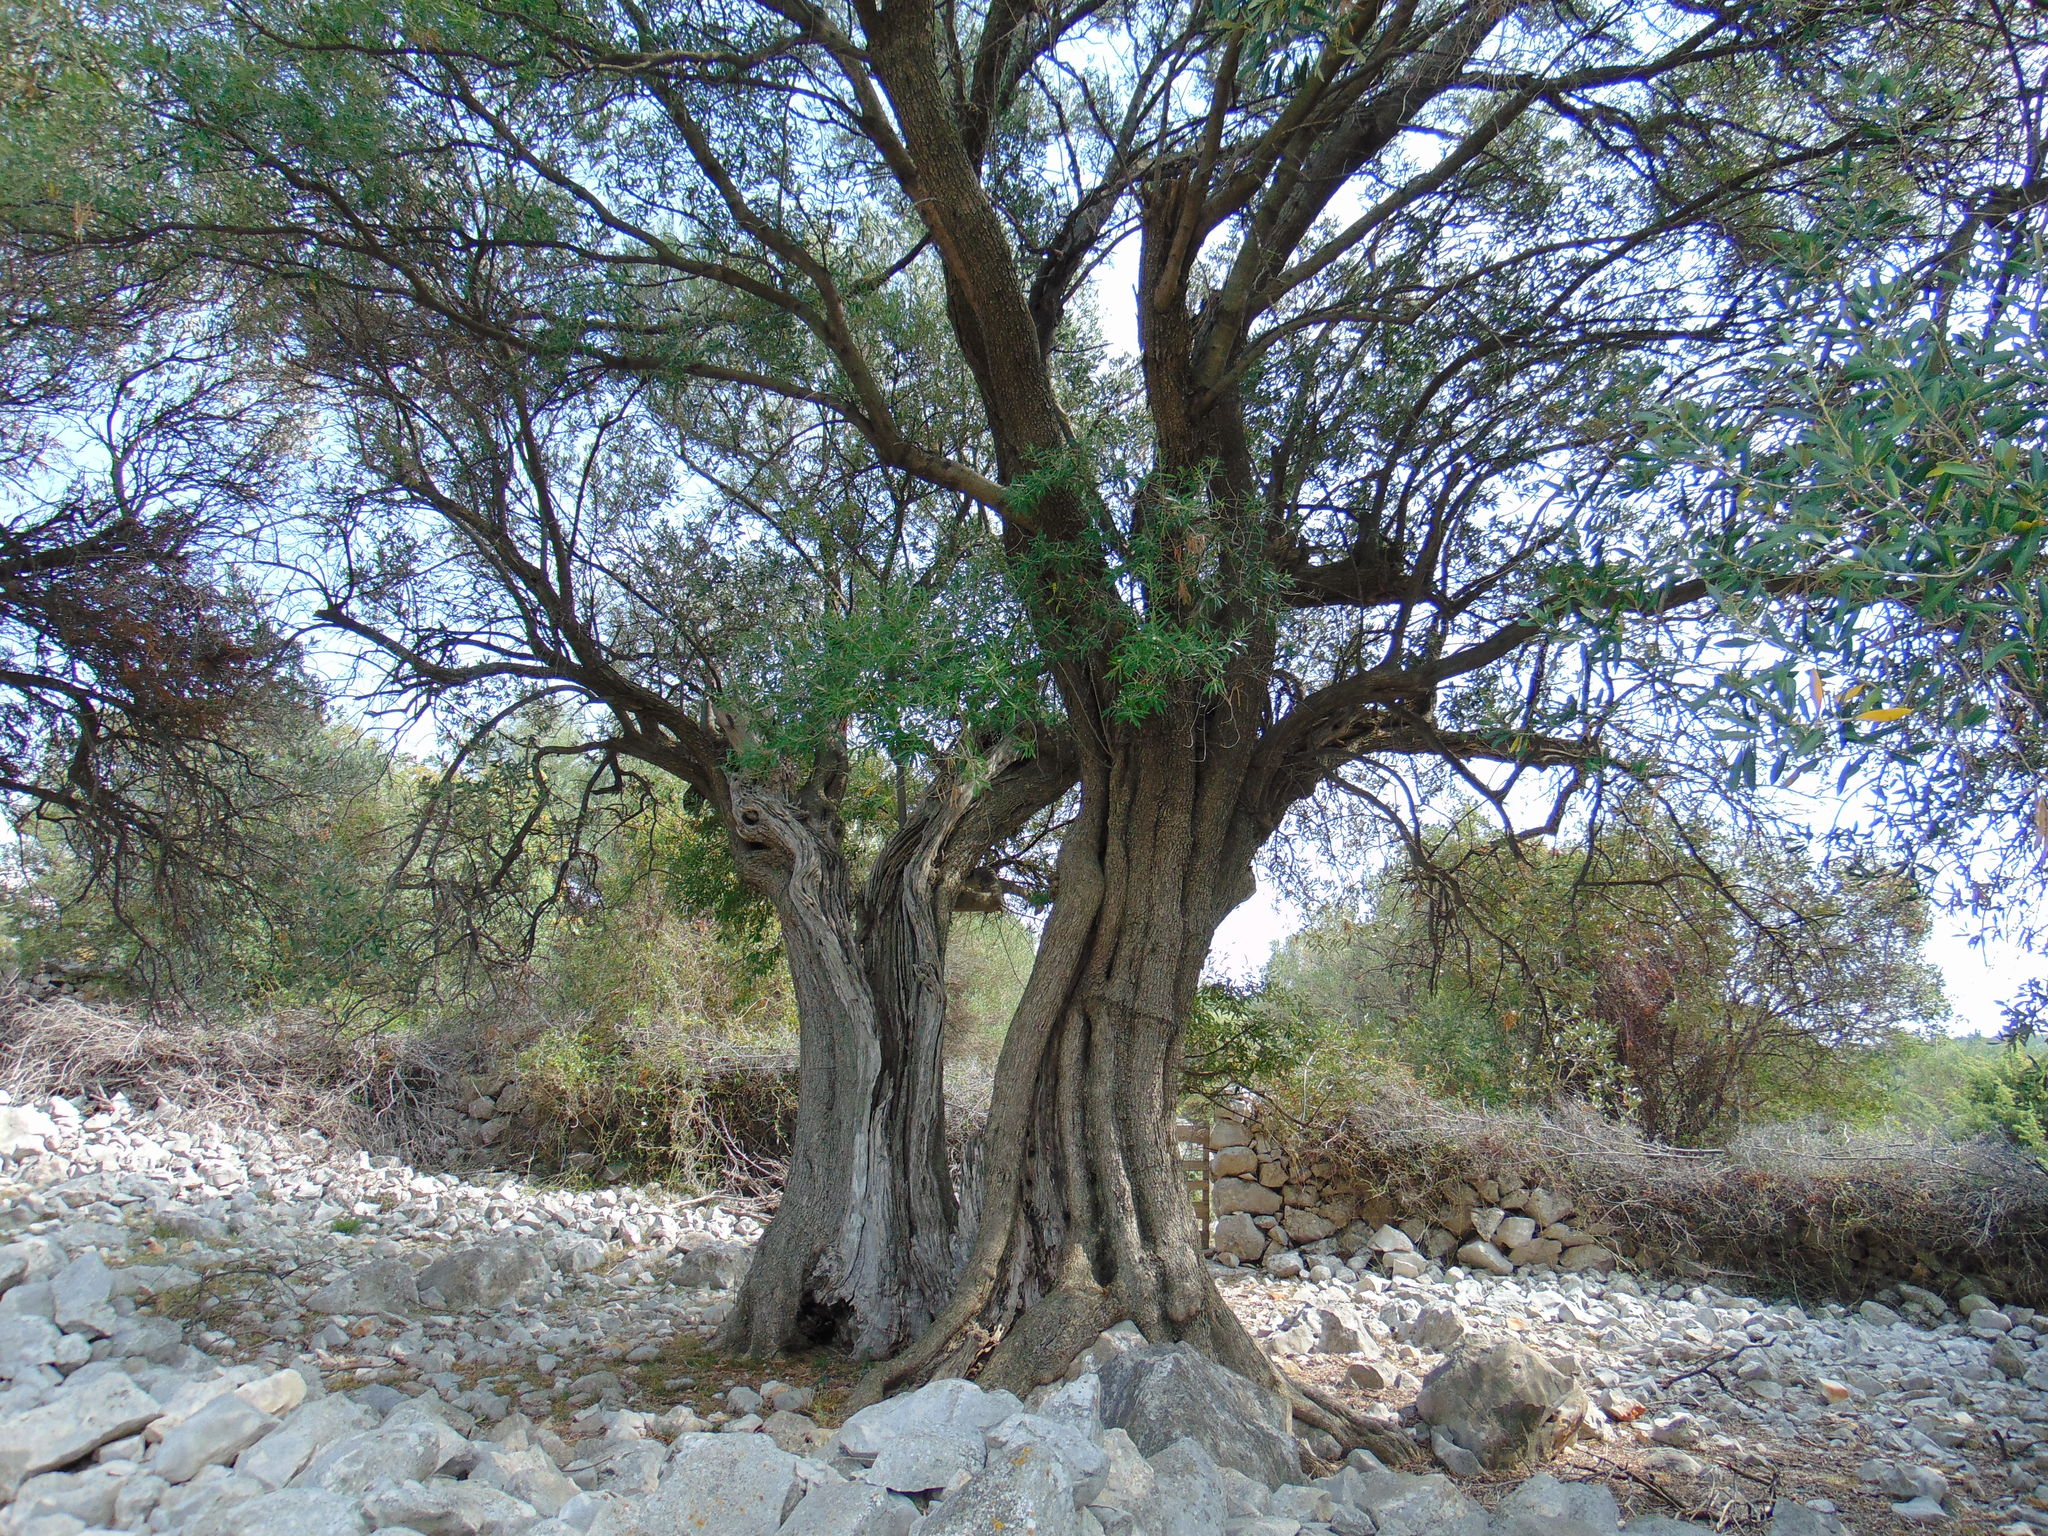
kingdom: Plantae
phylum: Tracheophyta
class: Magnoliopsida
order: Lamiales
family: Oleaceae
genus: Olea
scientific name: Olea europaea
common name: Olive
